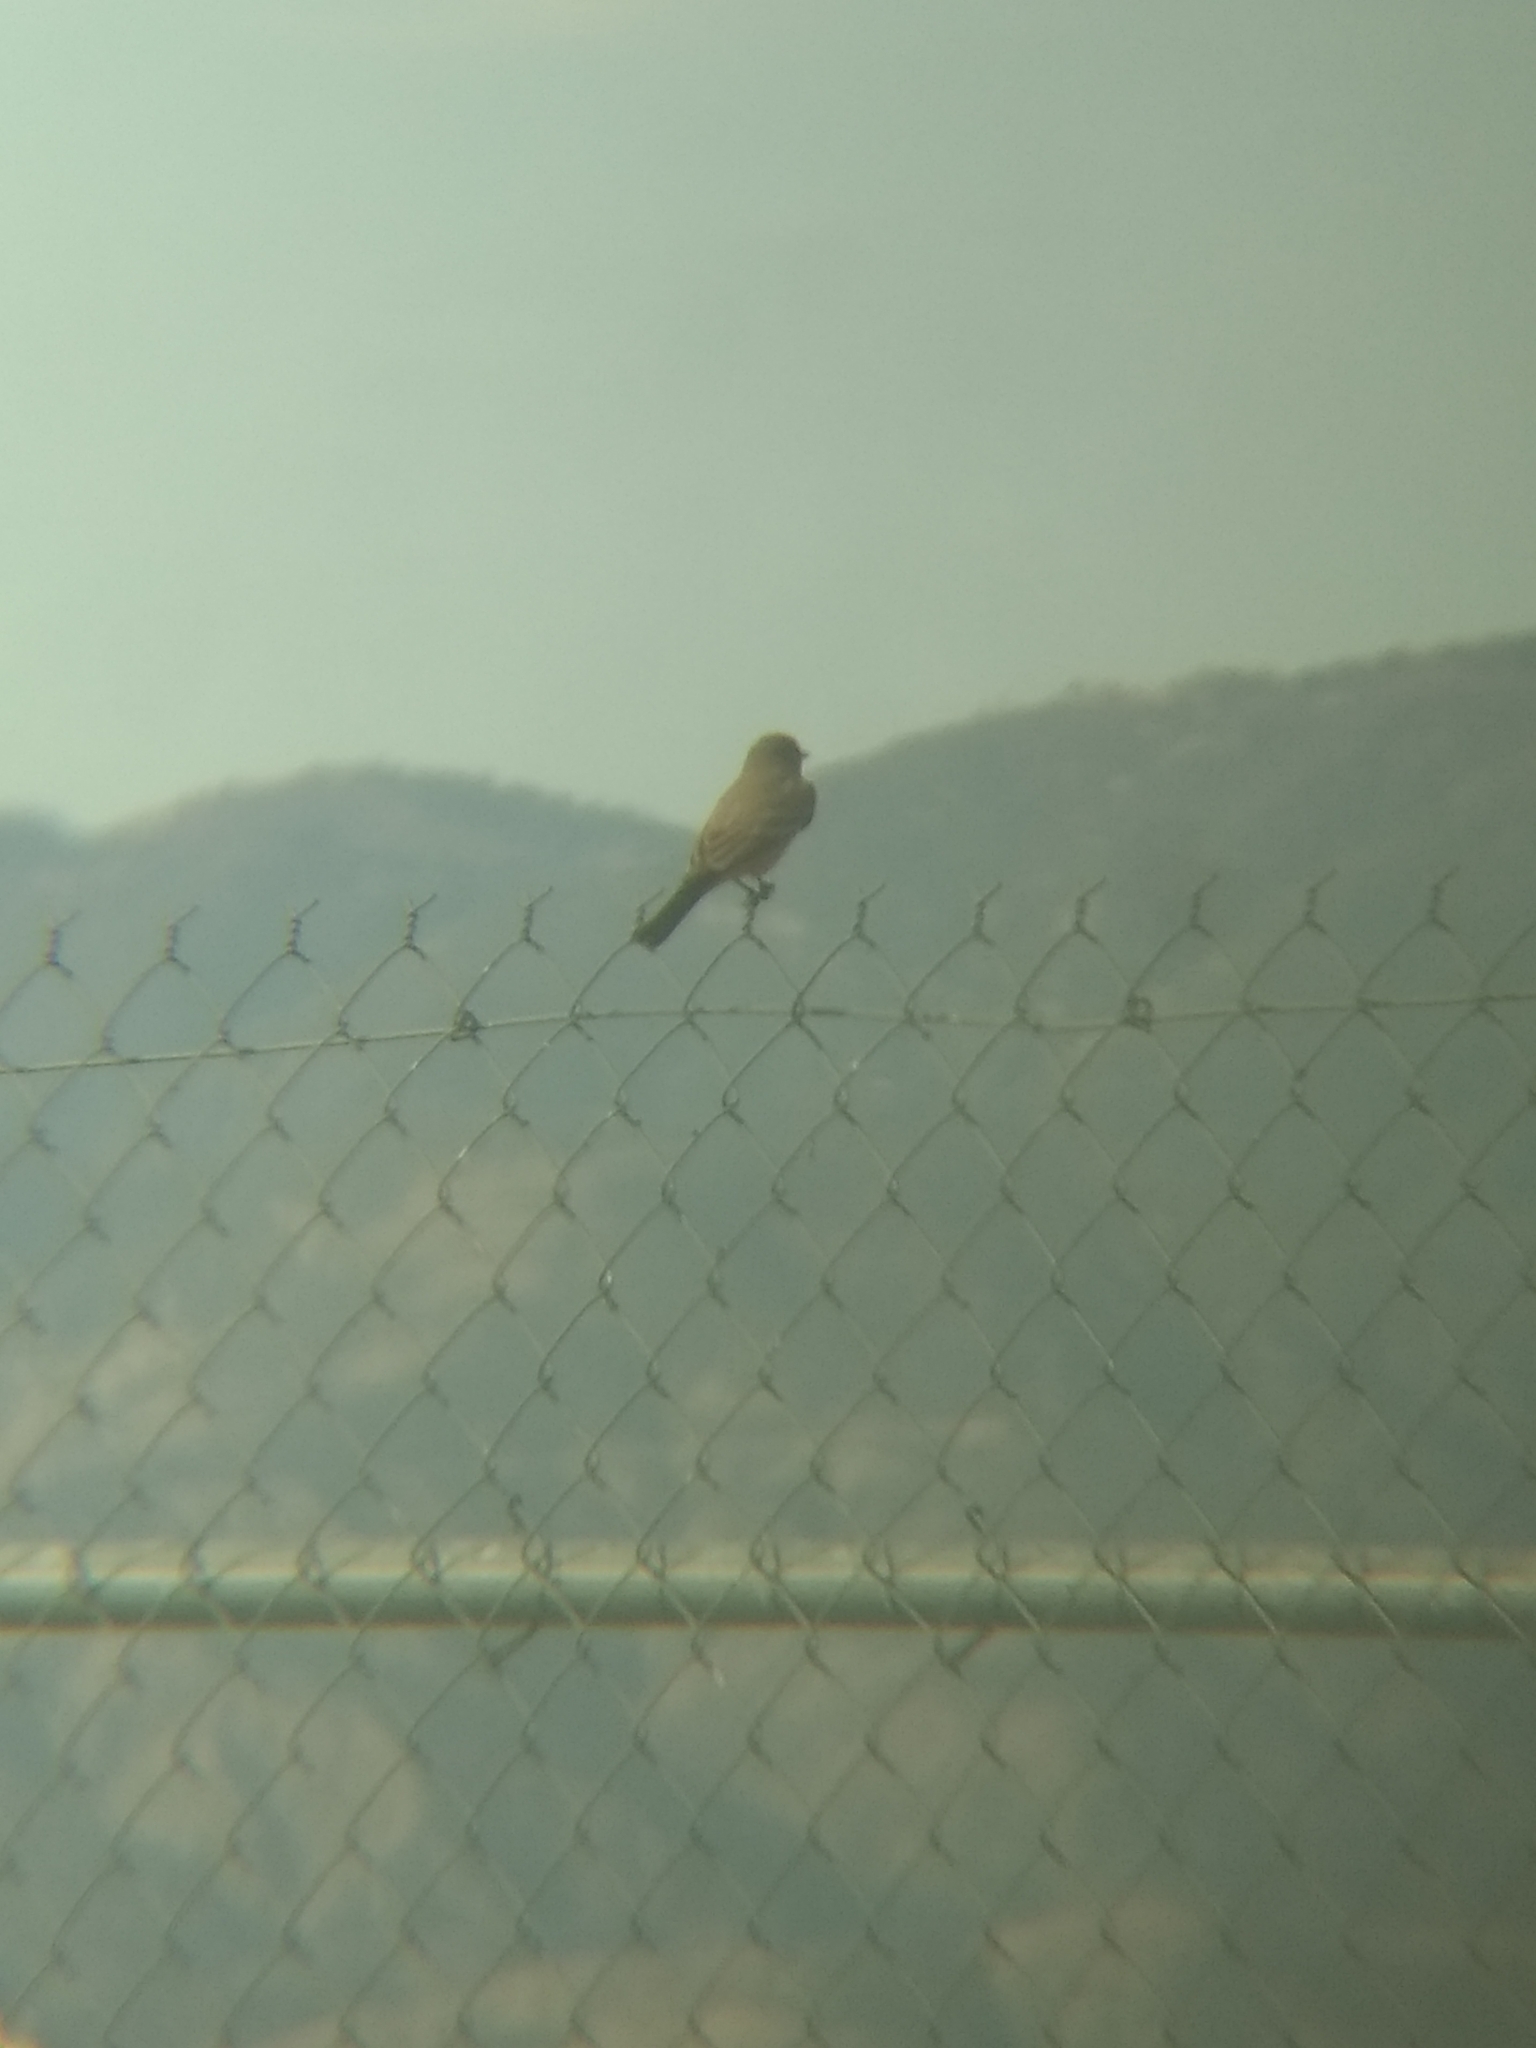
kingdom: Animalia
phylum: Chordata
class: Aves
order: Passeriformes
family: Tyrannidae
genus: Sayornis
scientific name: Sayornis saya
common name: Say's phoebe
